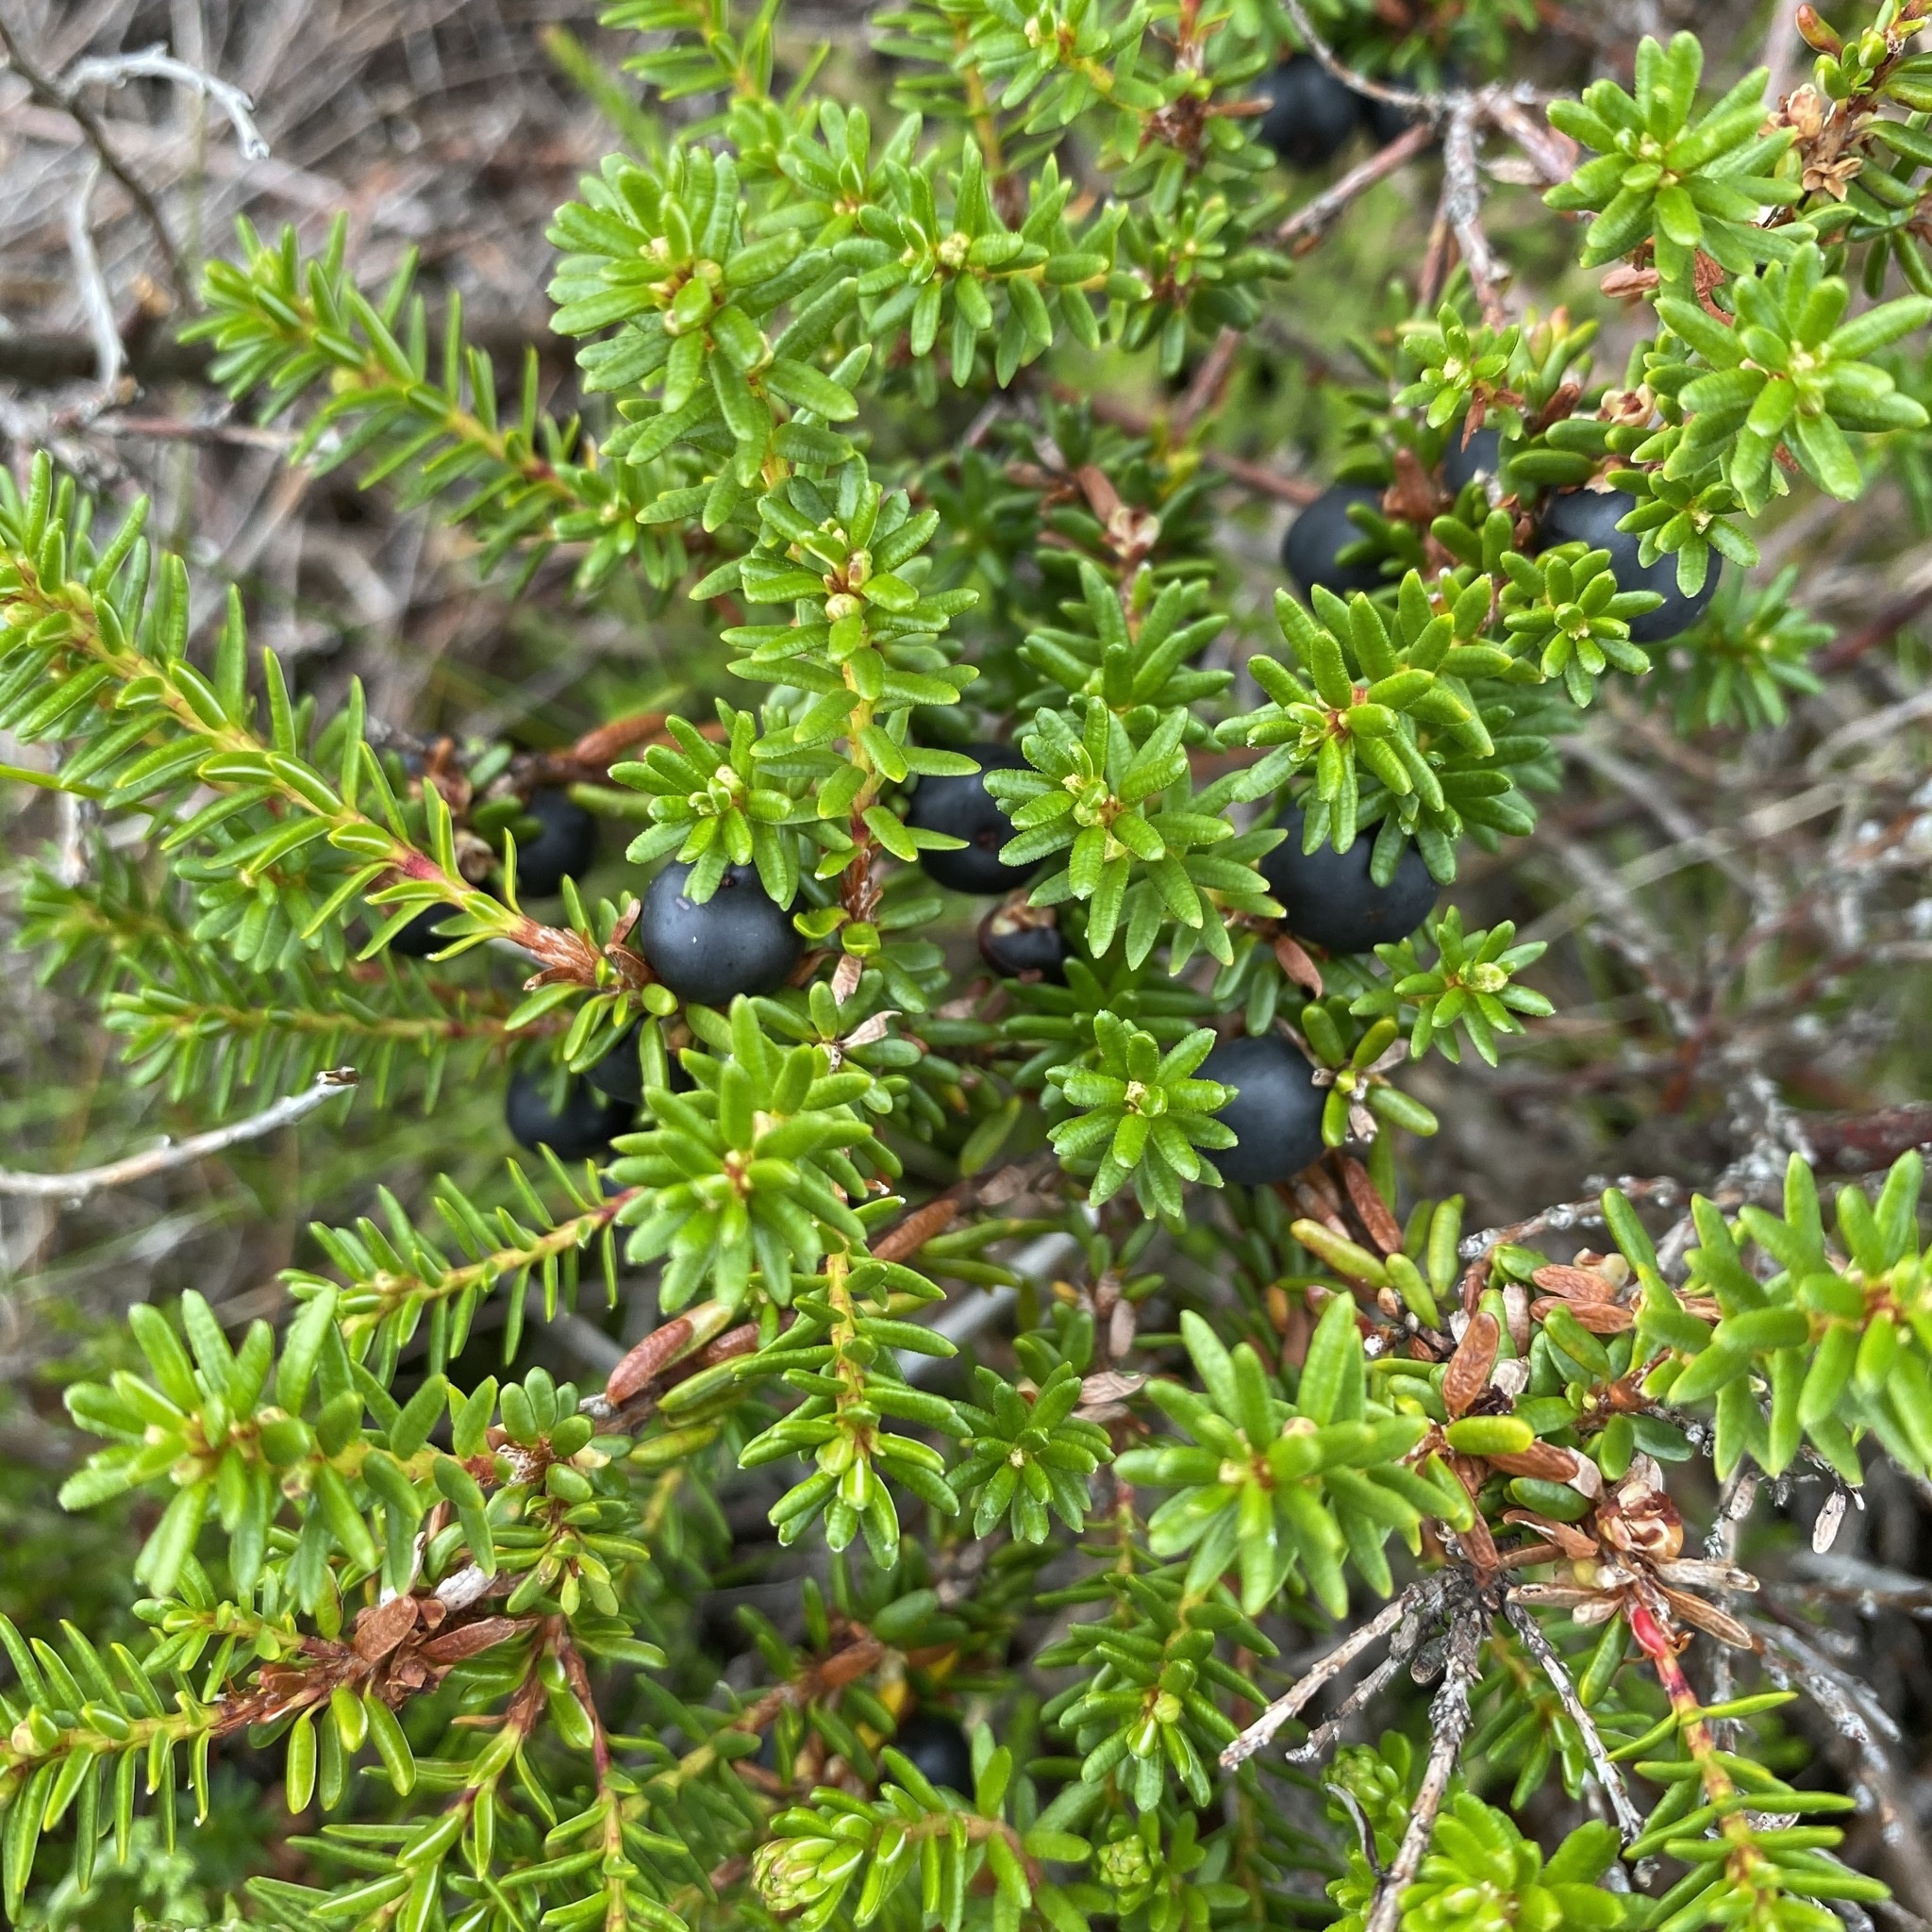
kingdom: Plantae
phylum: Tracheophyta
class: Magnoliopsida
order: Ericales
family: Ericaceae
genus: Empetrum
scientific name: Empetrum nigrum
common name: Black crowberry
